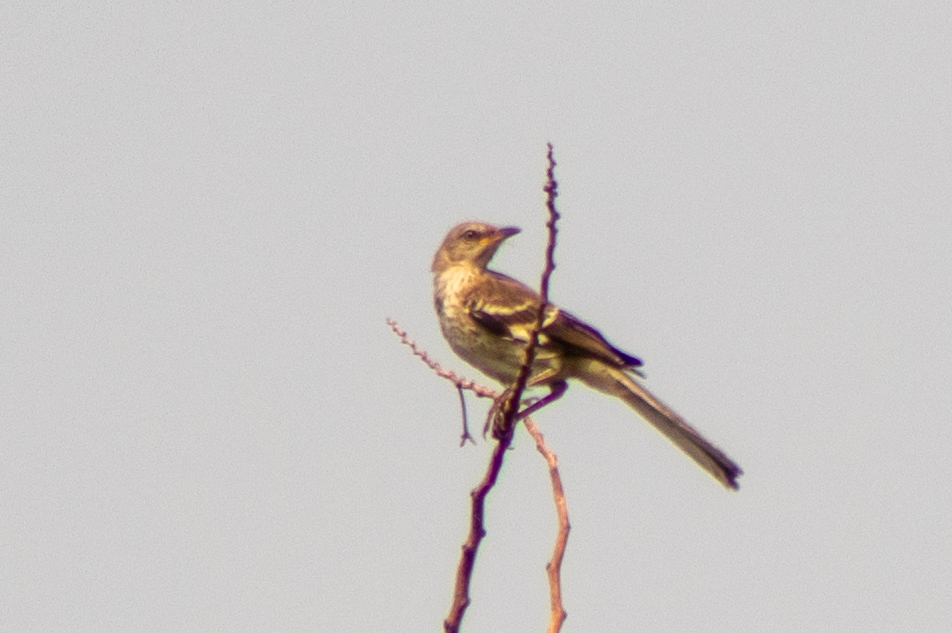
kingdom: Animalia
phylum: Chordata
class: Aves
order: Passeriformes
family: Mimidae
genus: Mimus
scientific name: Mimus polyglottos
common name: Northern mockingbird
